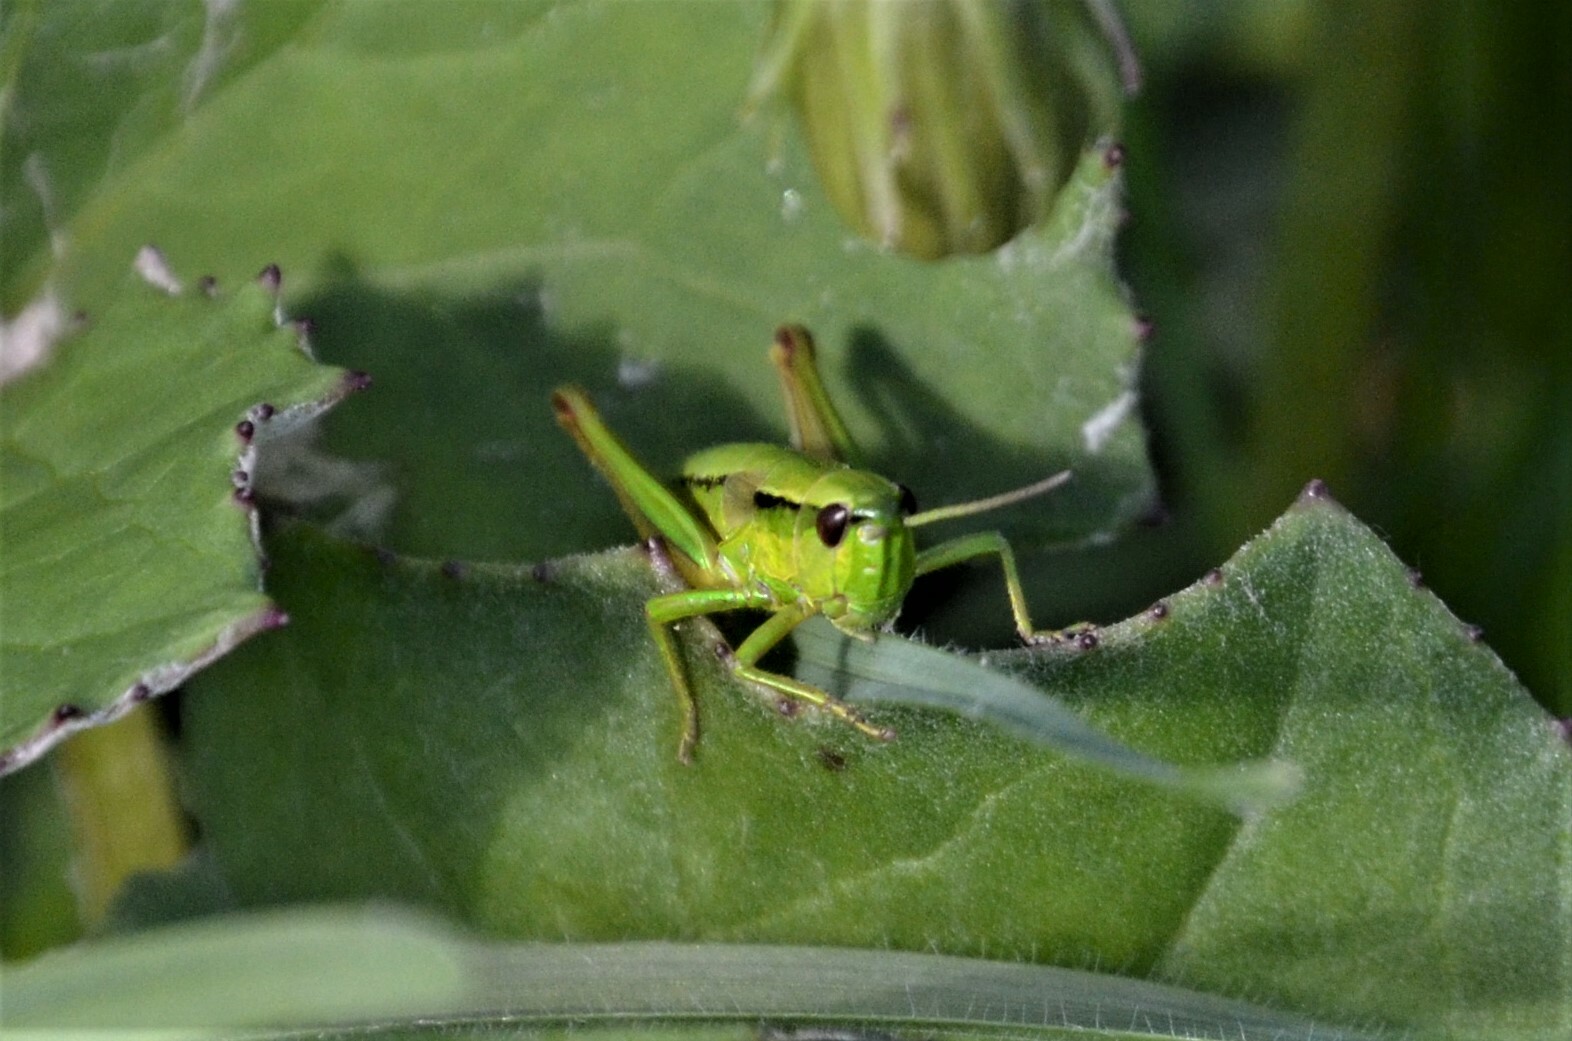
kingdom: Animalia
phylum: Arthropoda
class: Insecta
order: Orthoptera
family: Acrididae
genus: Euthystira
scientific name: Euthystira brachyptera
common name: Small gold grasshopper
